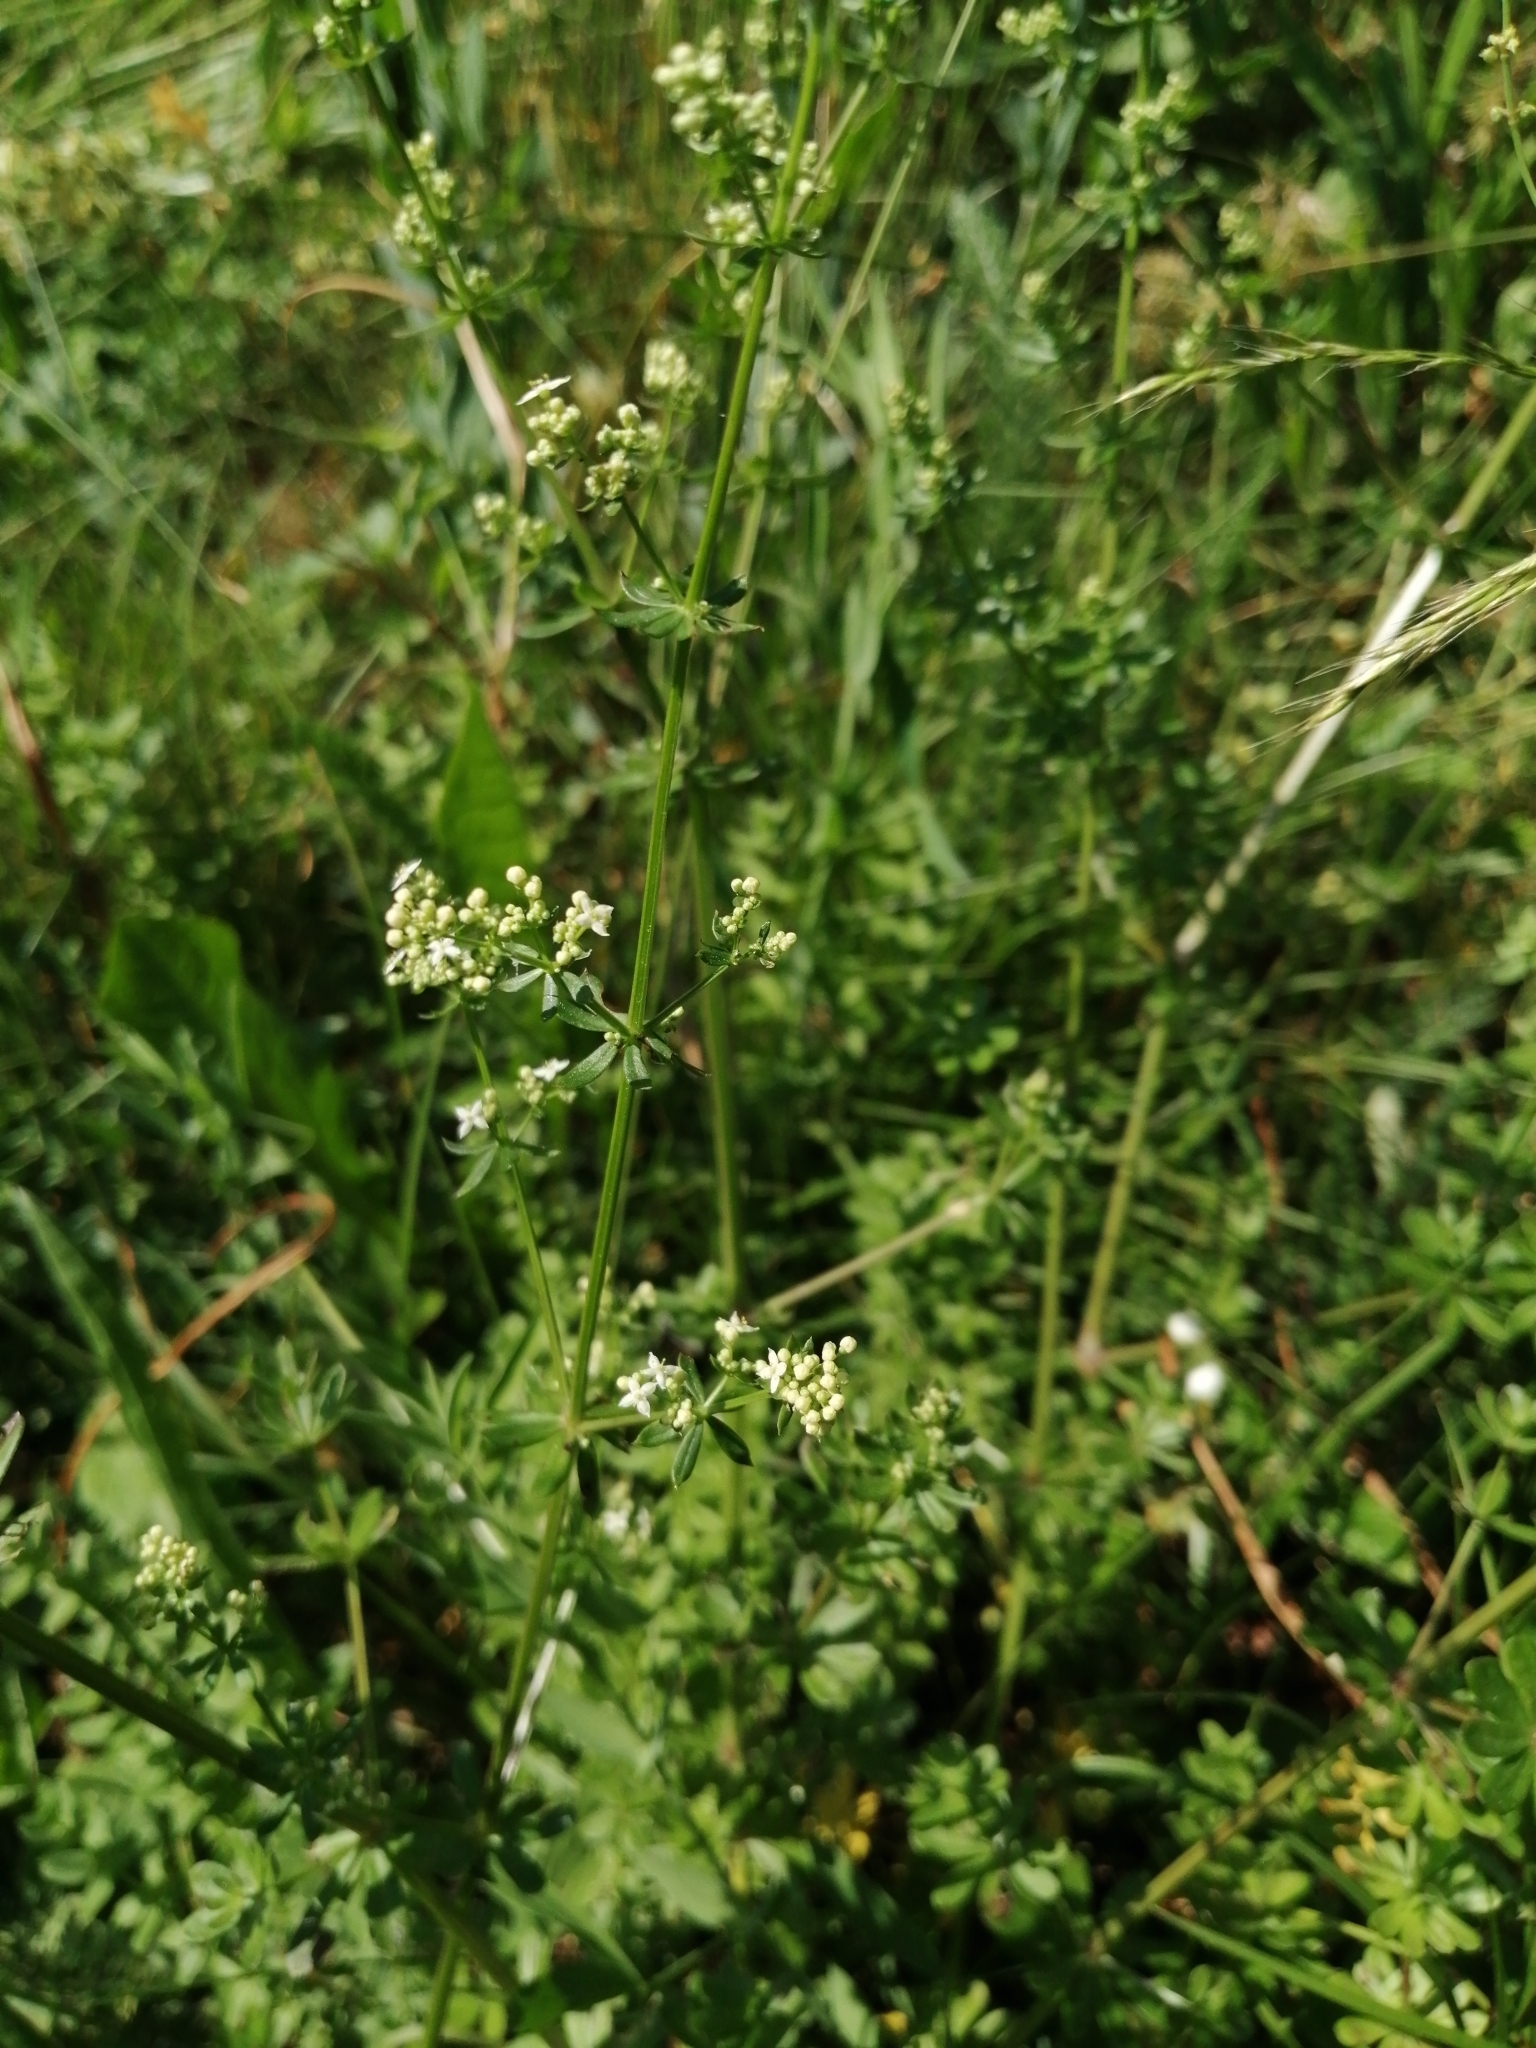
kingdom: Plantae
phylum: Tracheophyta
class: Magnoliopsida
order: Gentianales
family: Rubiaceae
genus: Galium
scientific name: Galium mollugo
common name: Hedge bedstraw
